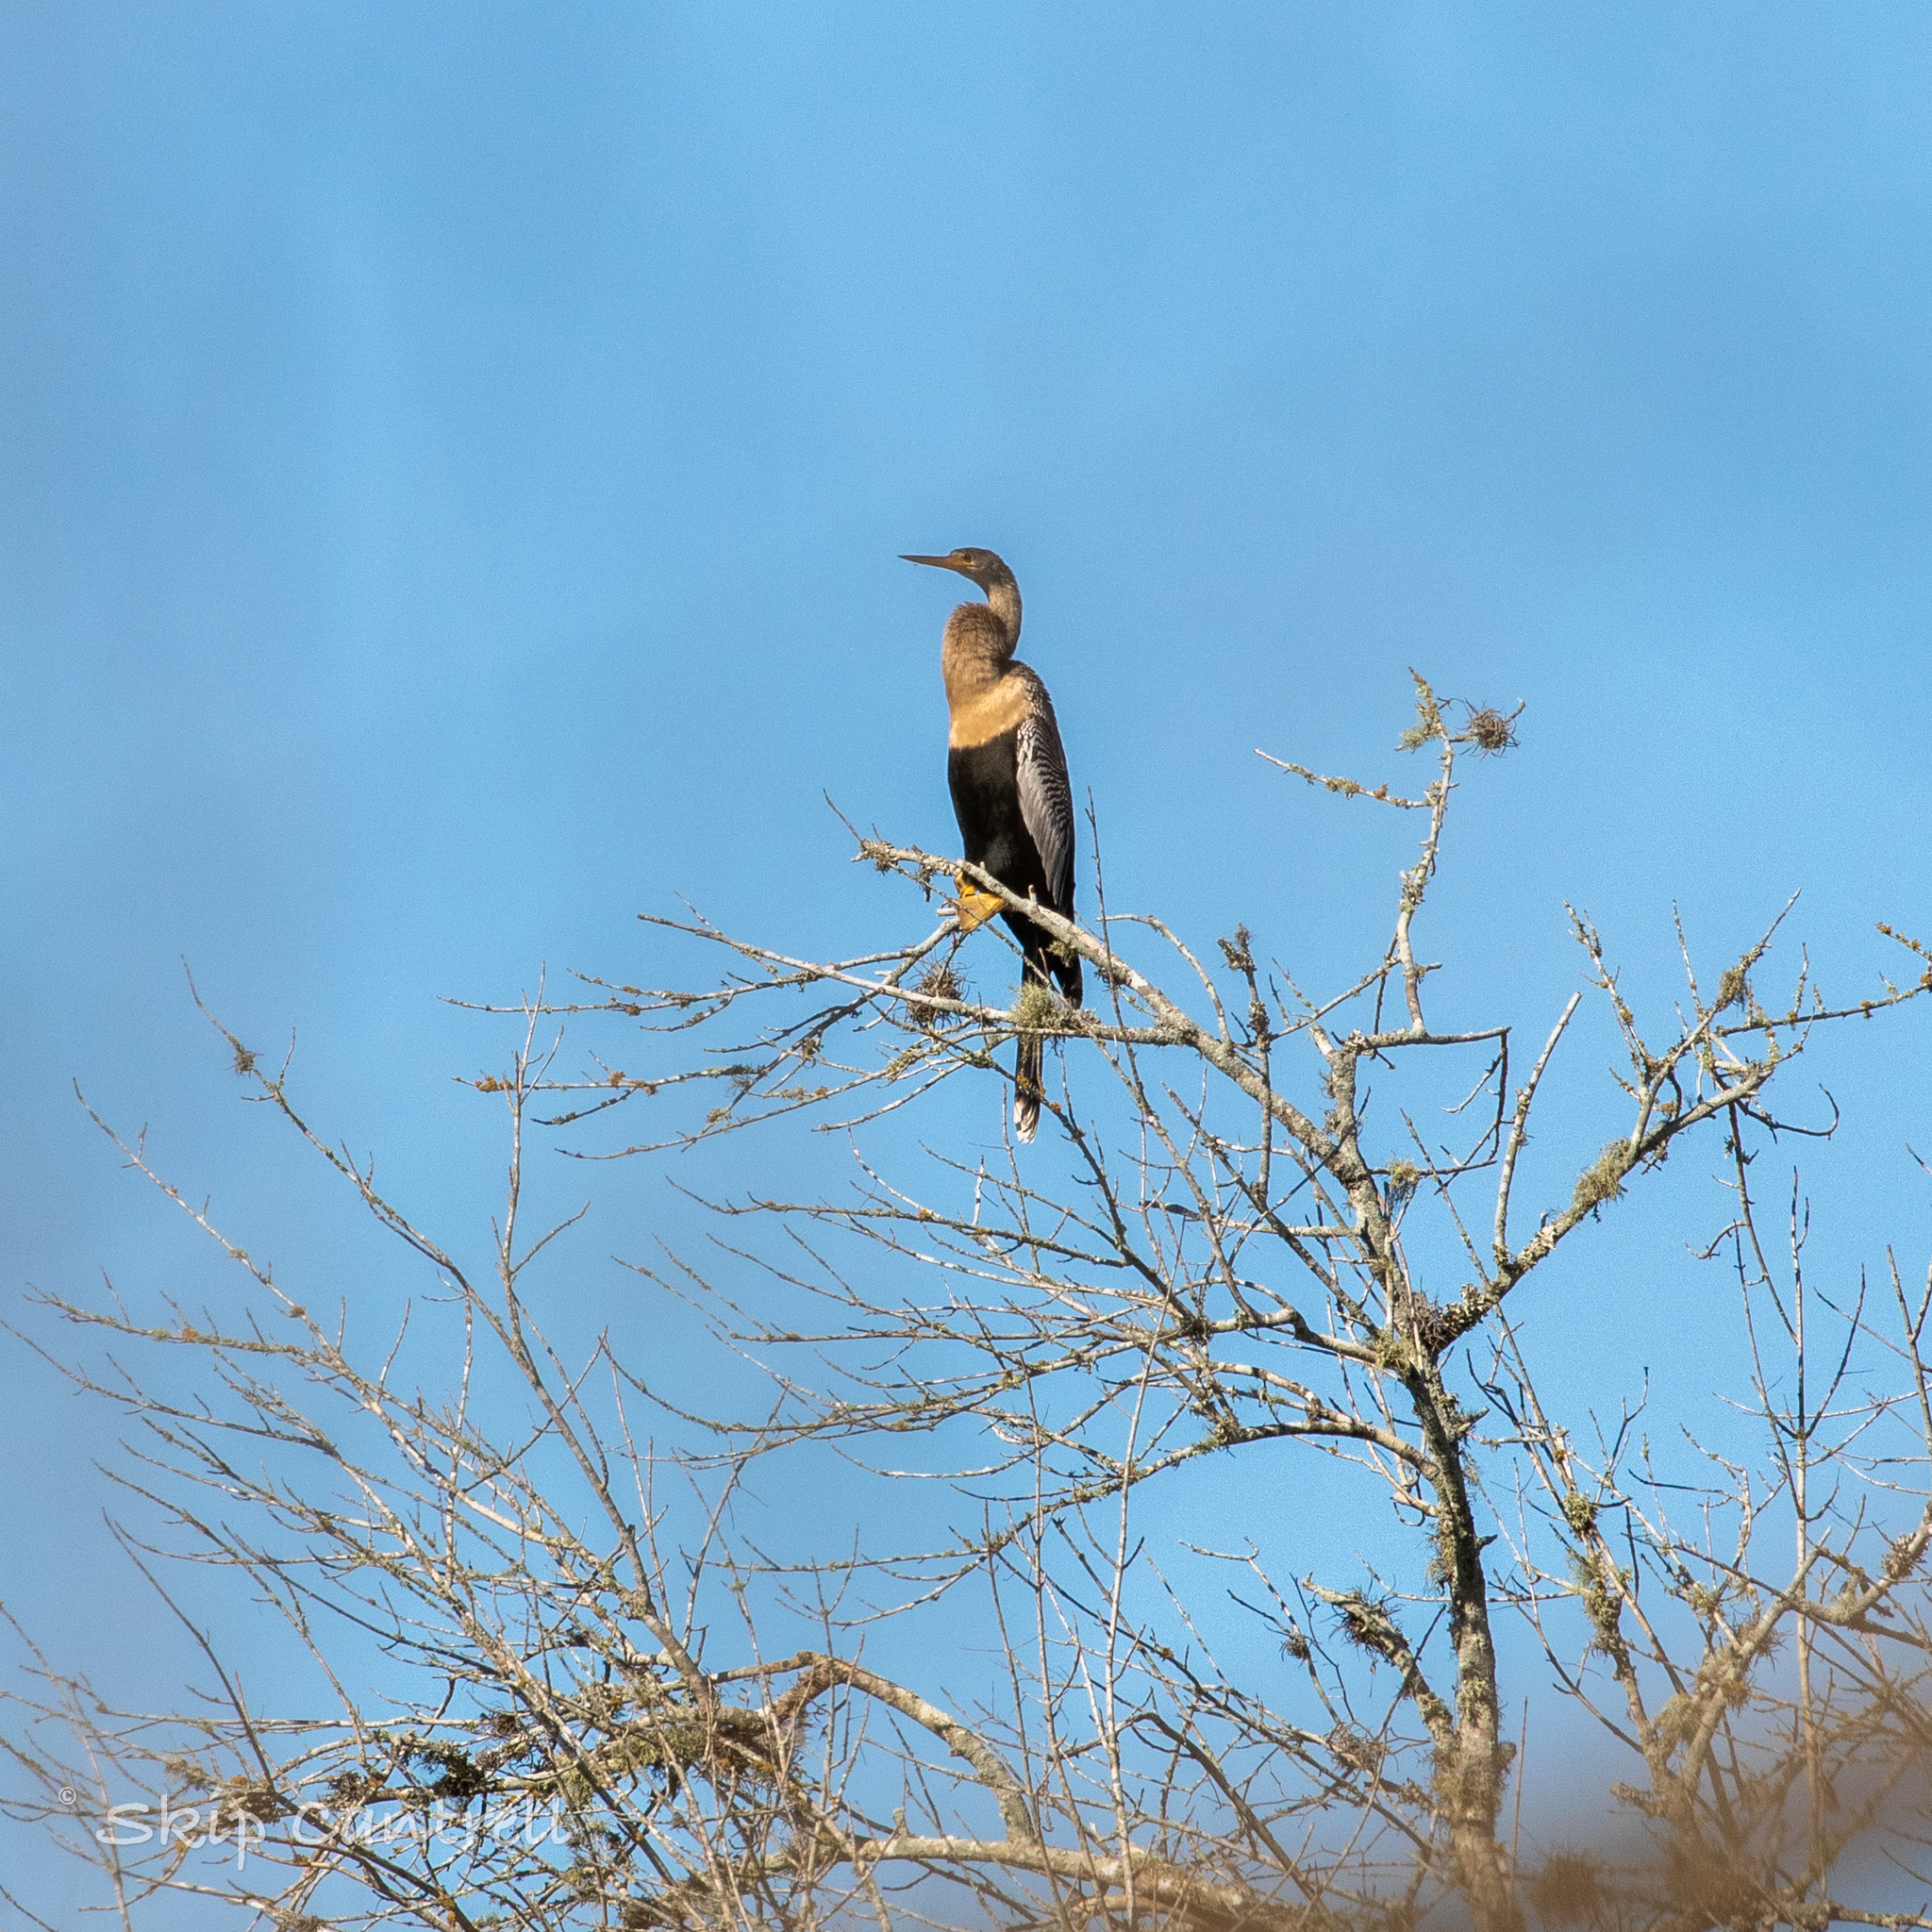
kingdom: Animalia
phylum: Chordata
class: Aves
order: Suliformes
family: Anhingidae
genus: Anhinga
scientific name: Anhinga anhinga
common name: Anhinga
